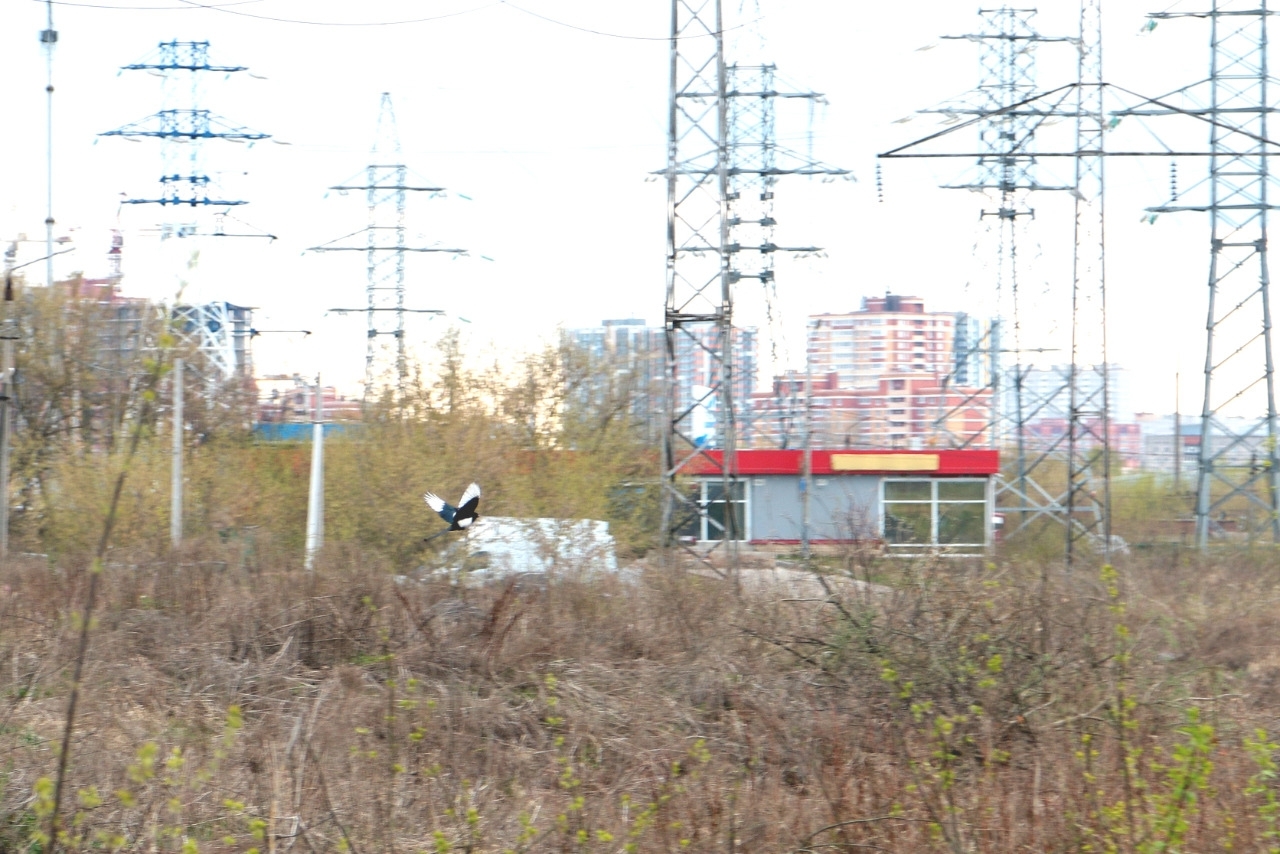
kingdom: Animalia
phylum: Chordata
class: Aves
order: Passeriformes
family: Corvidae
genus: Pica
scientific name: Pica pica
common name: Eurasian magpie
